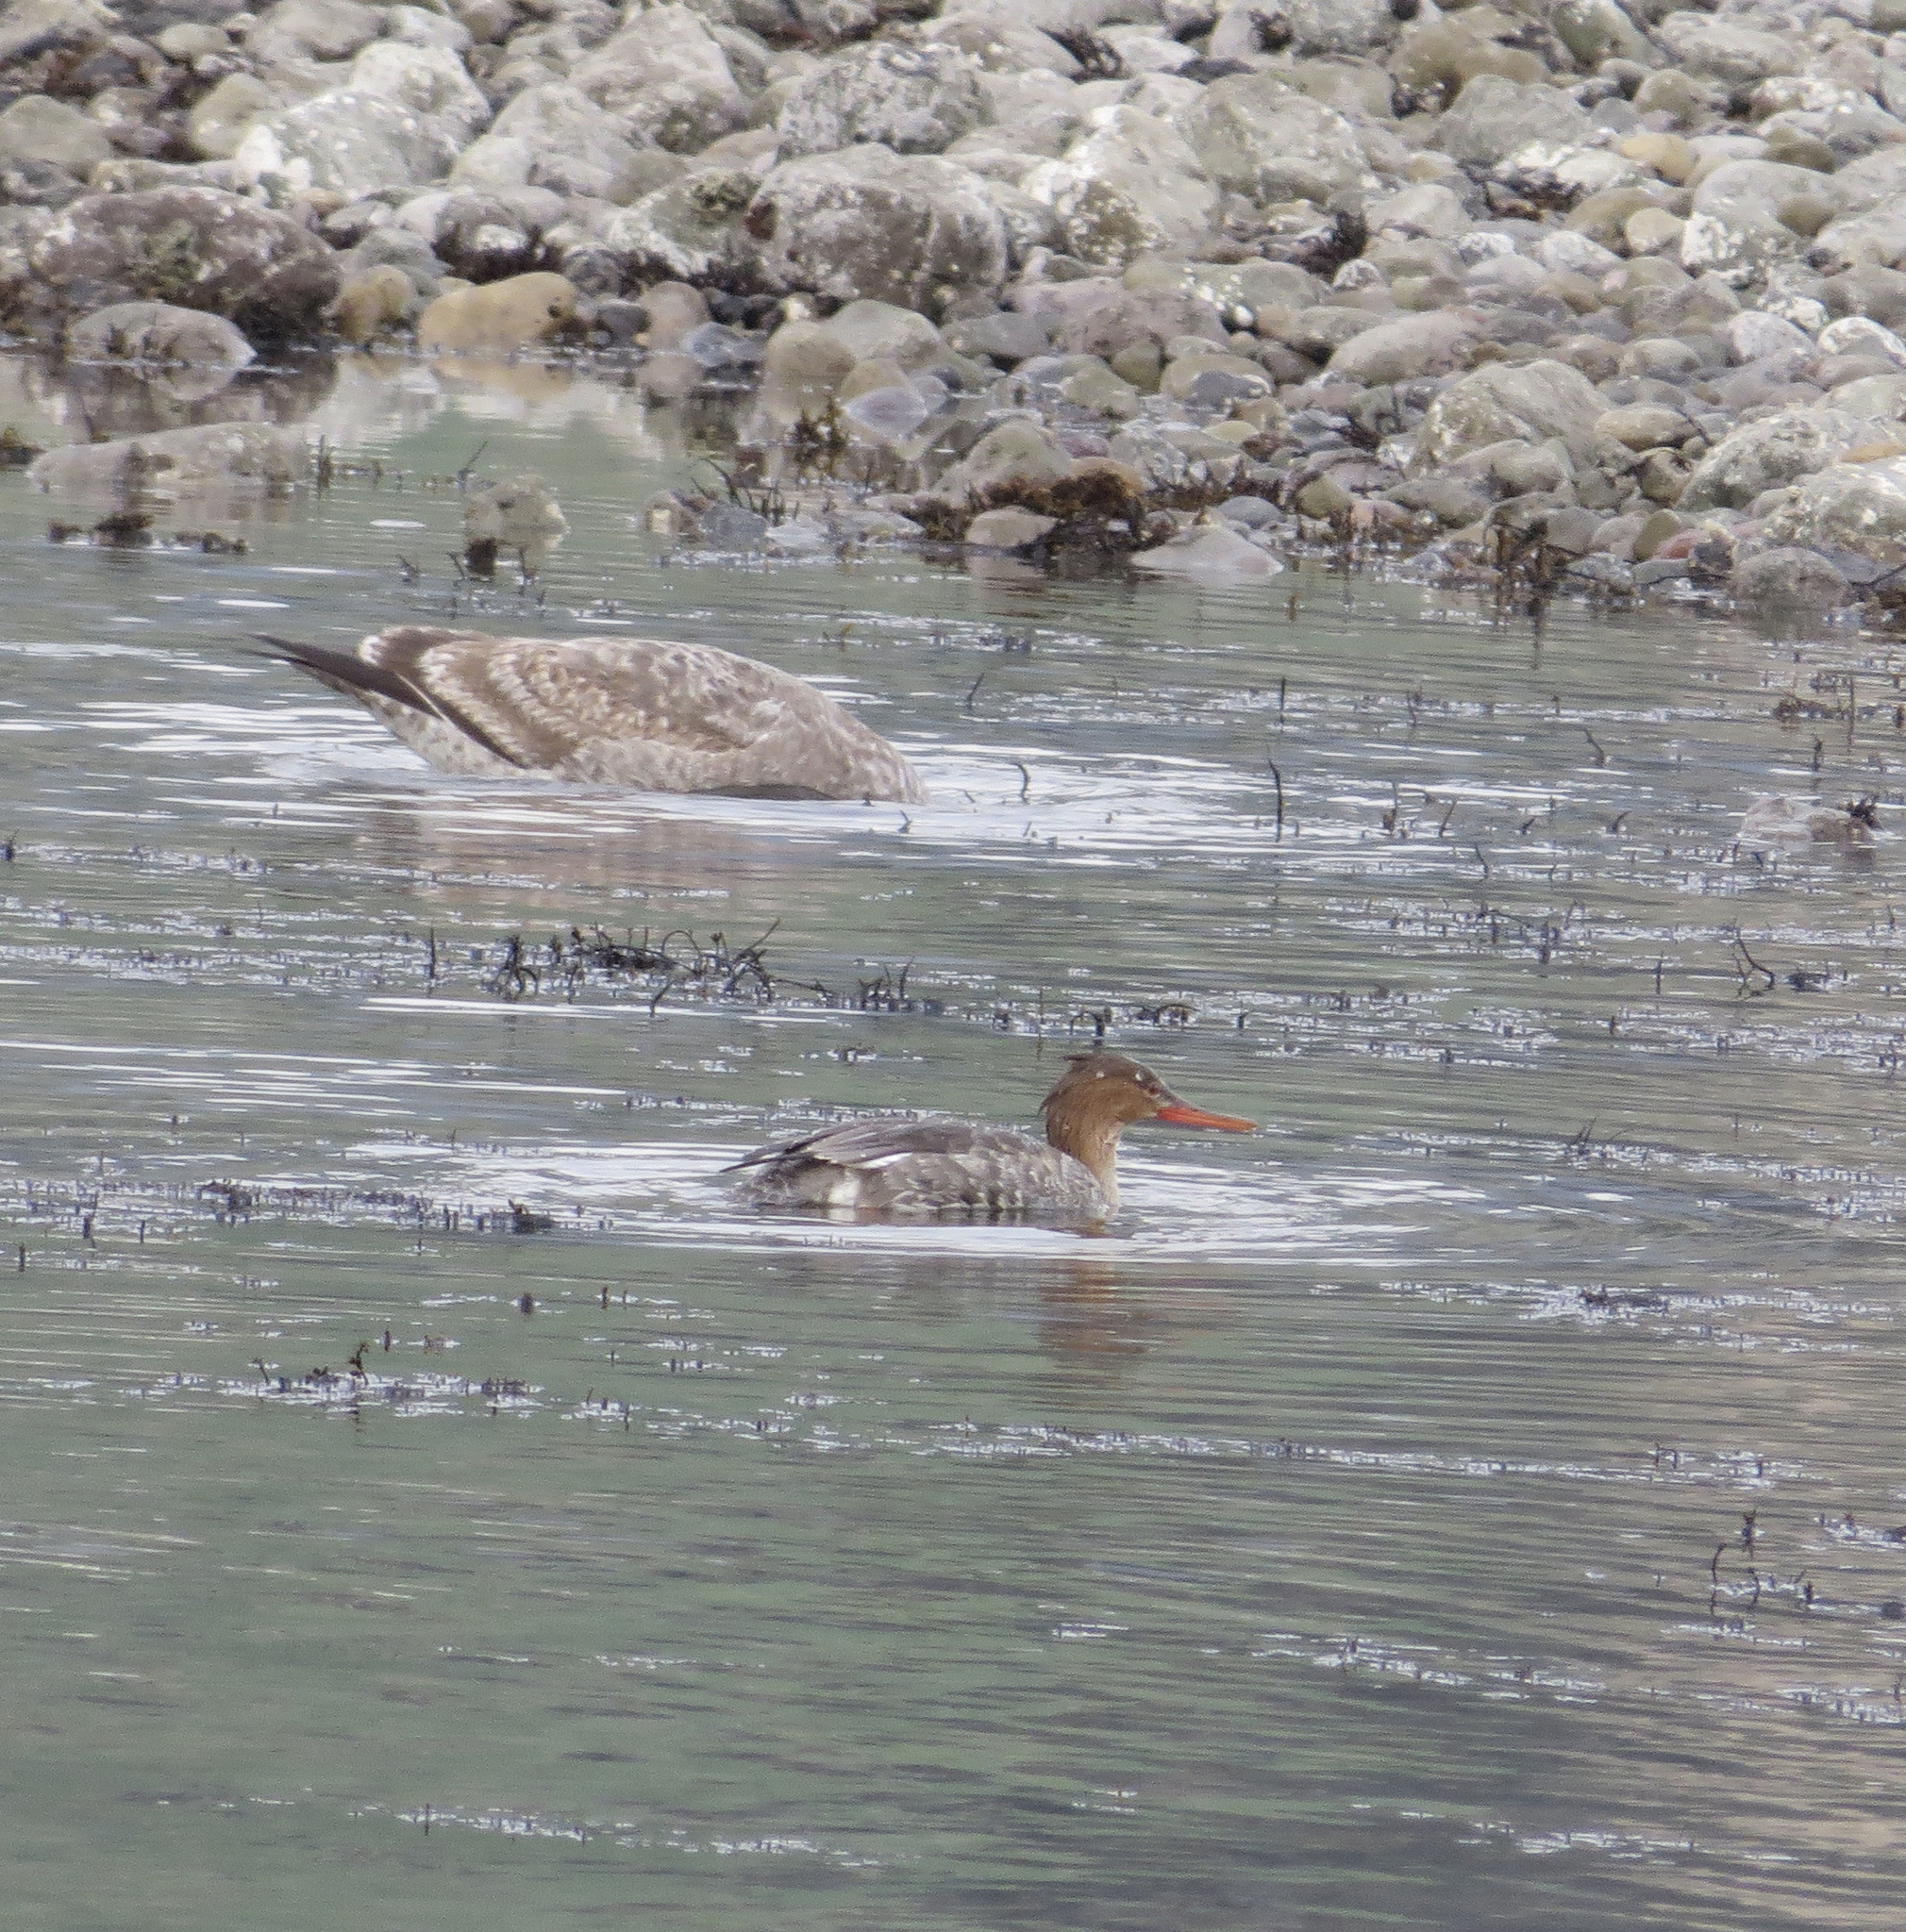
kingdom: Animalia
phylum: Chordata
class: Aves
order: Anseriformes
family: Anatidae
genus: Mergus
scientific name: Mergus serrator
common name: Red-breasted merganser
